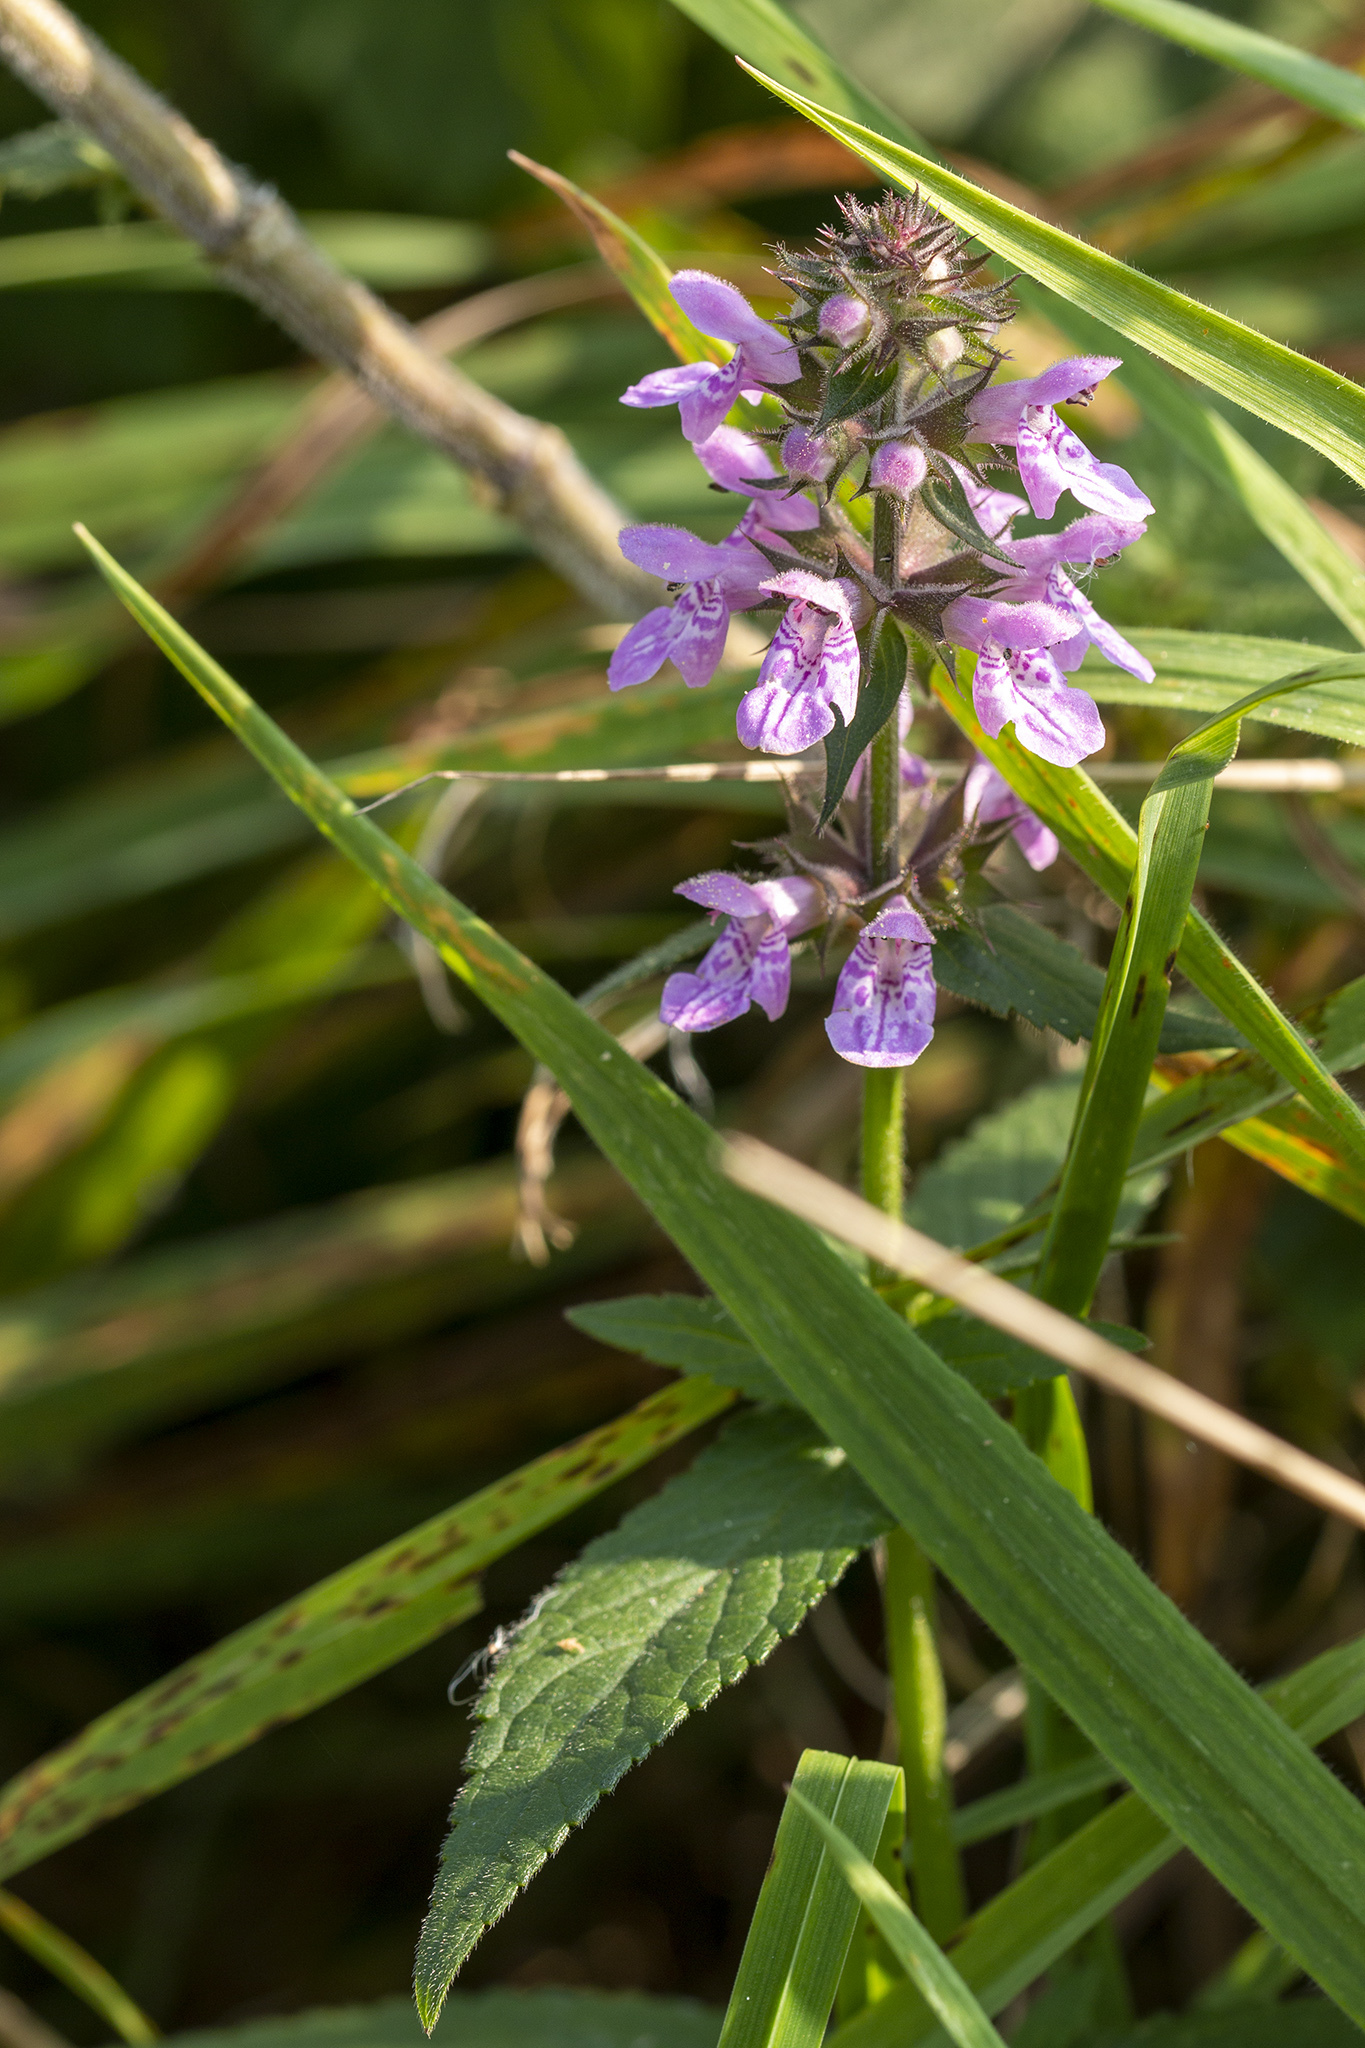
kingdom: Plantae
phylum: Tracheophyta
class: Magnoliopsida
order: Lamiales
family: Lamiaceae
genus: Stachys
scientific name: Stachys palustris
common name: Marsh woundwort
